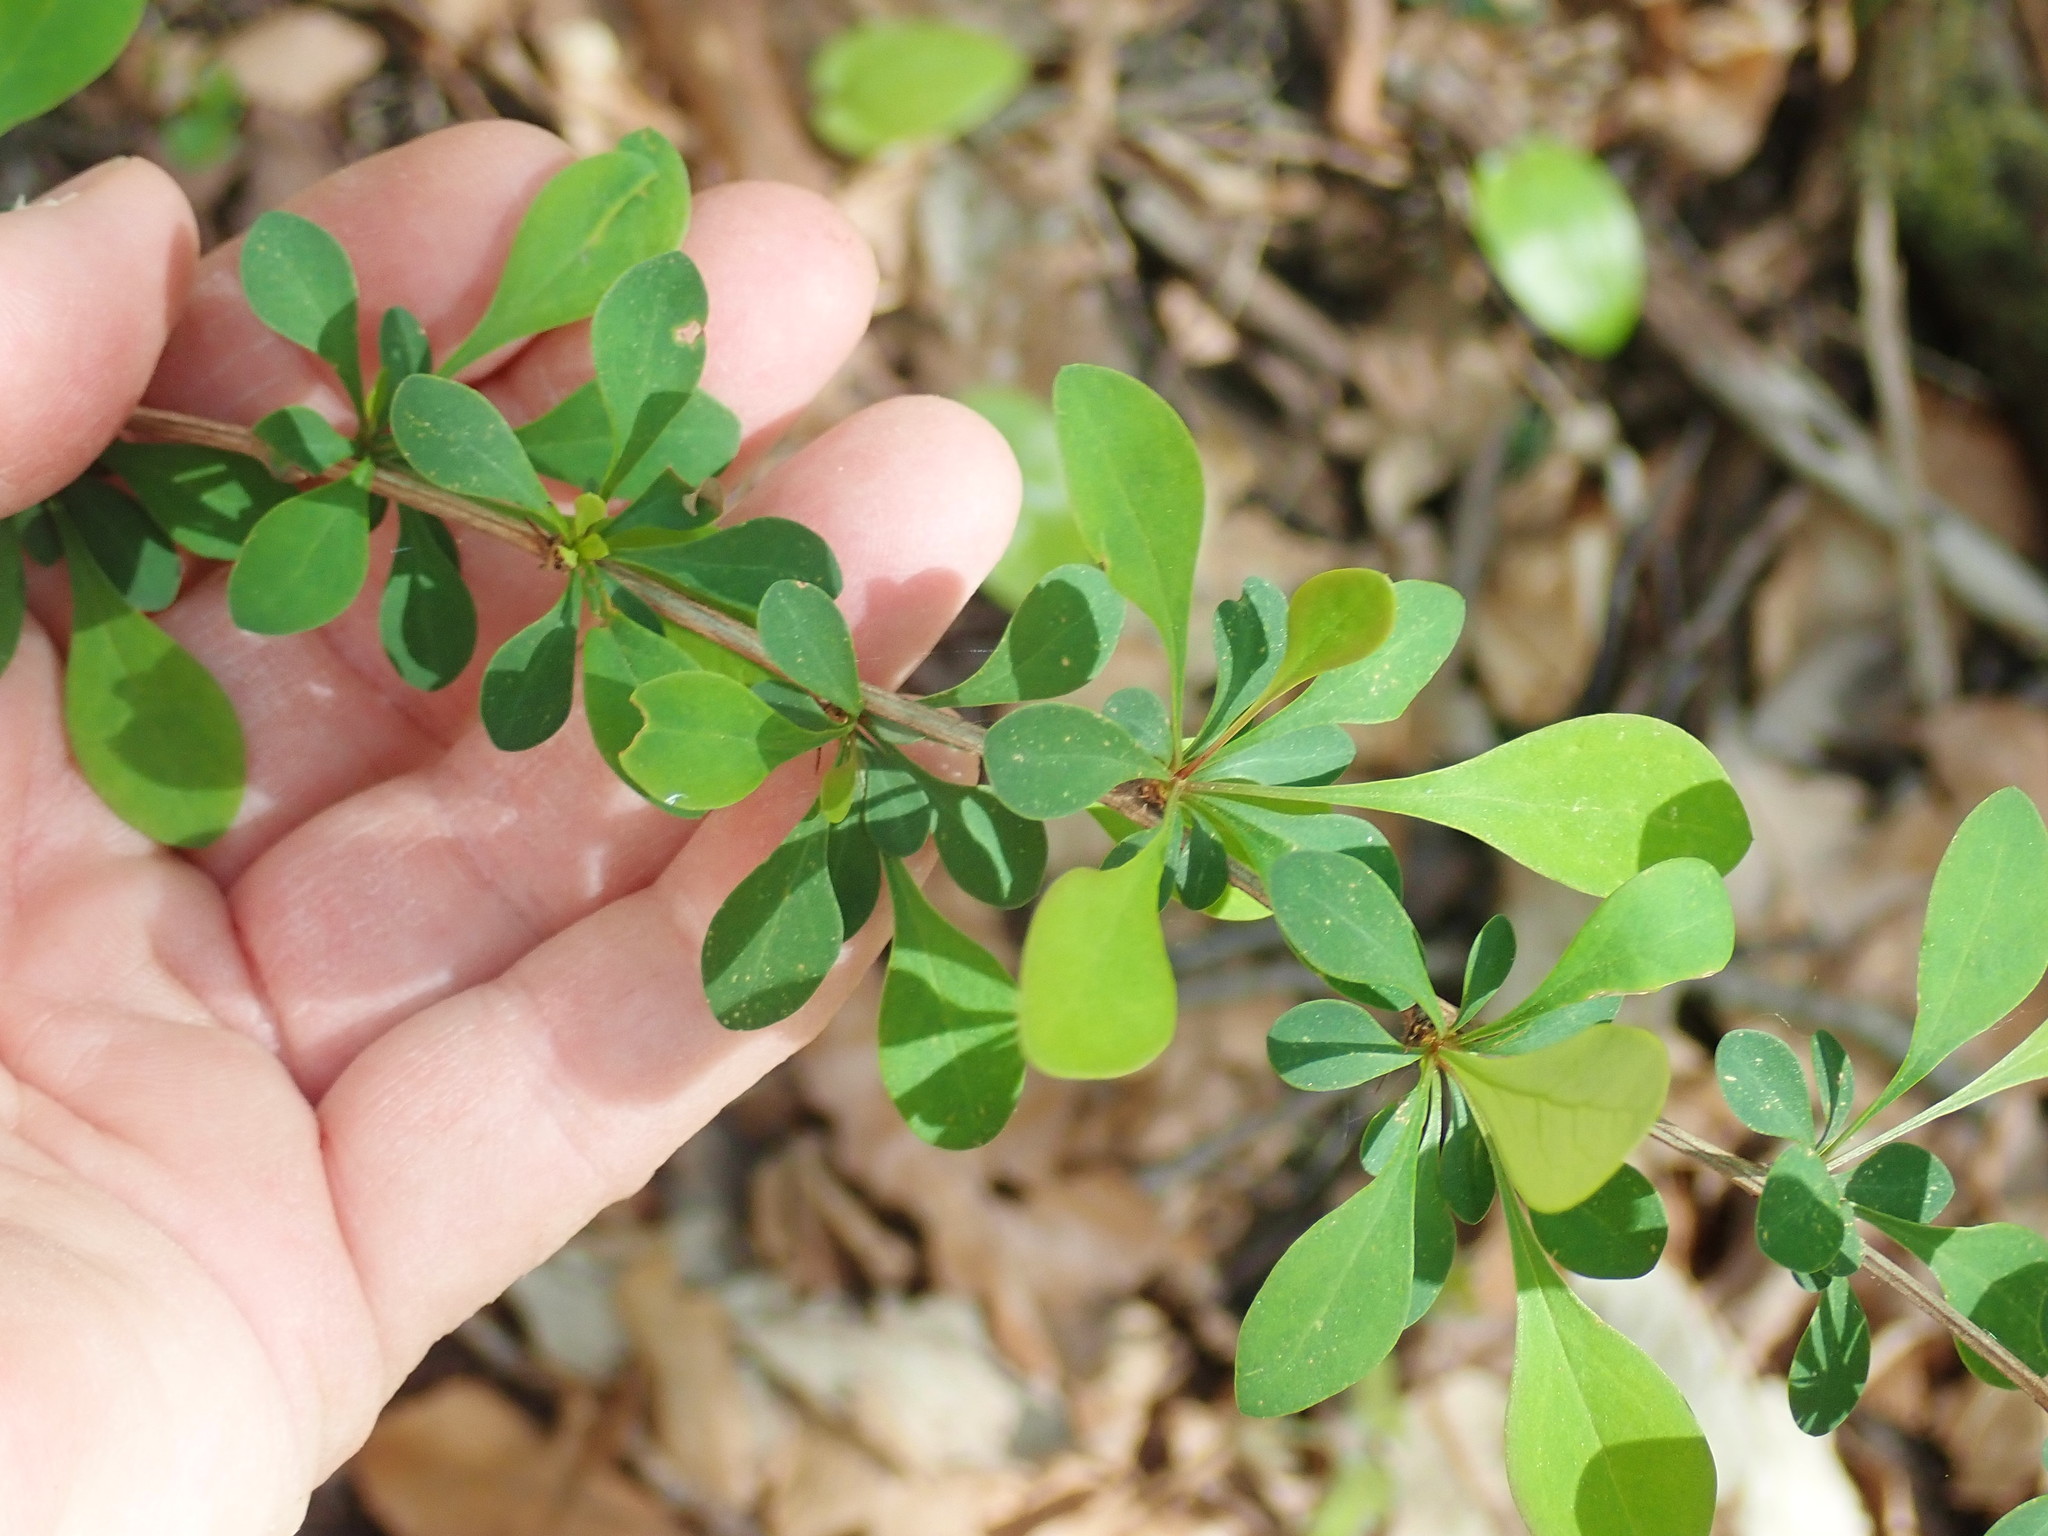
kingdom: Plantae
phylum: Tracheophyta
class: Magnoliopsida
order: Ranunculales
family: Berberidaceae
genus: Berberis
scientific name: Berberis thunbergii
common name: Japanese barberry
